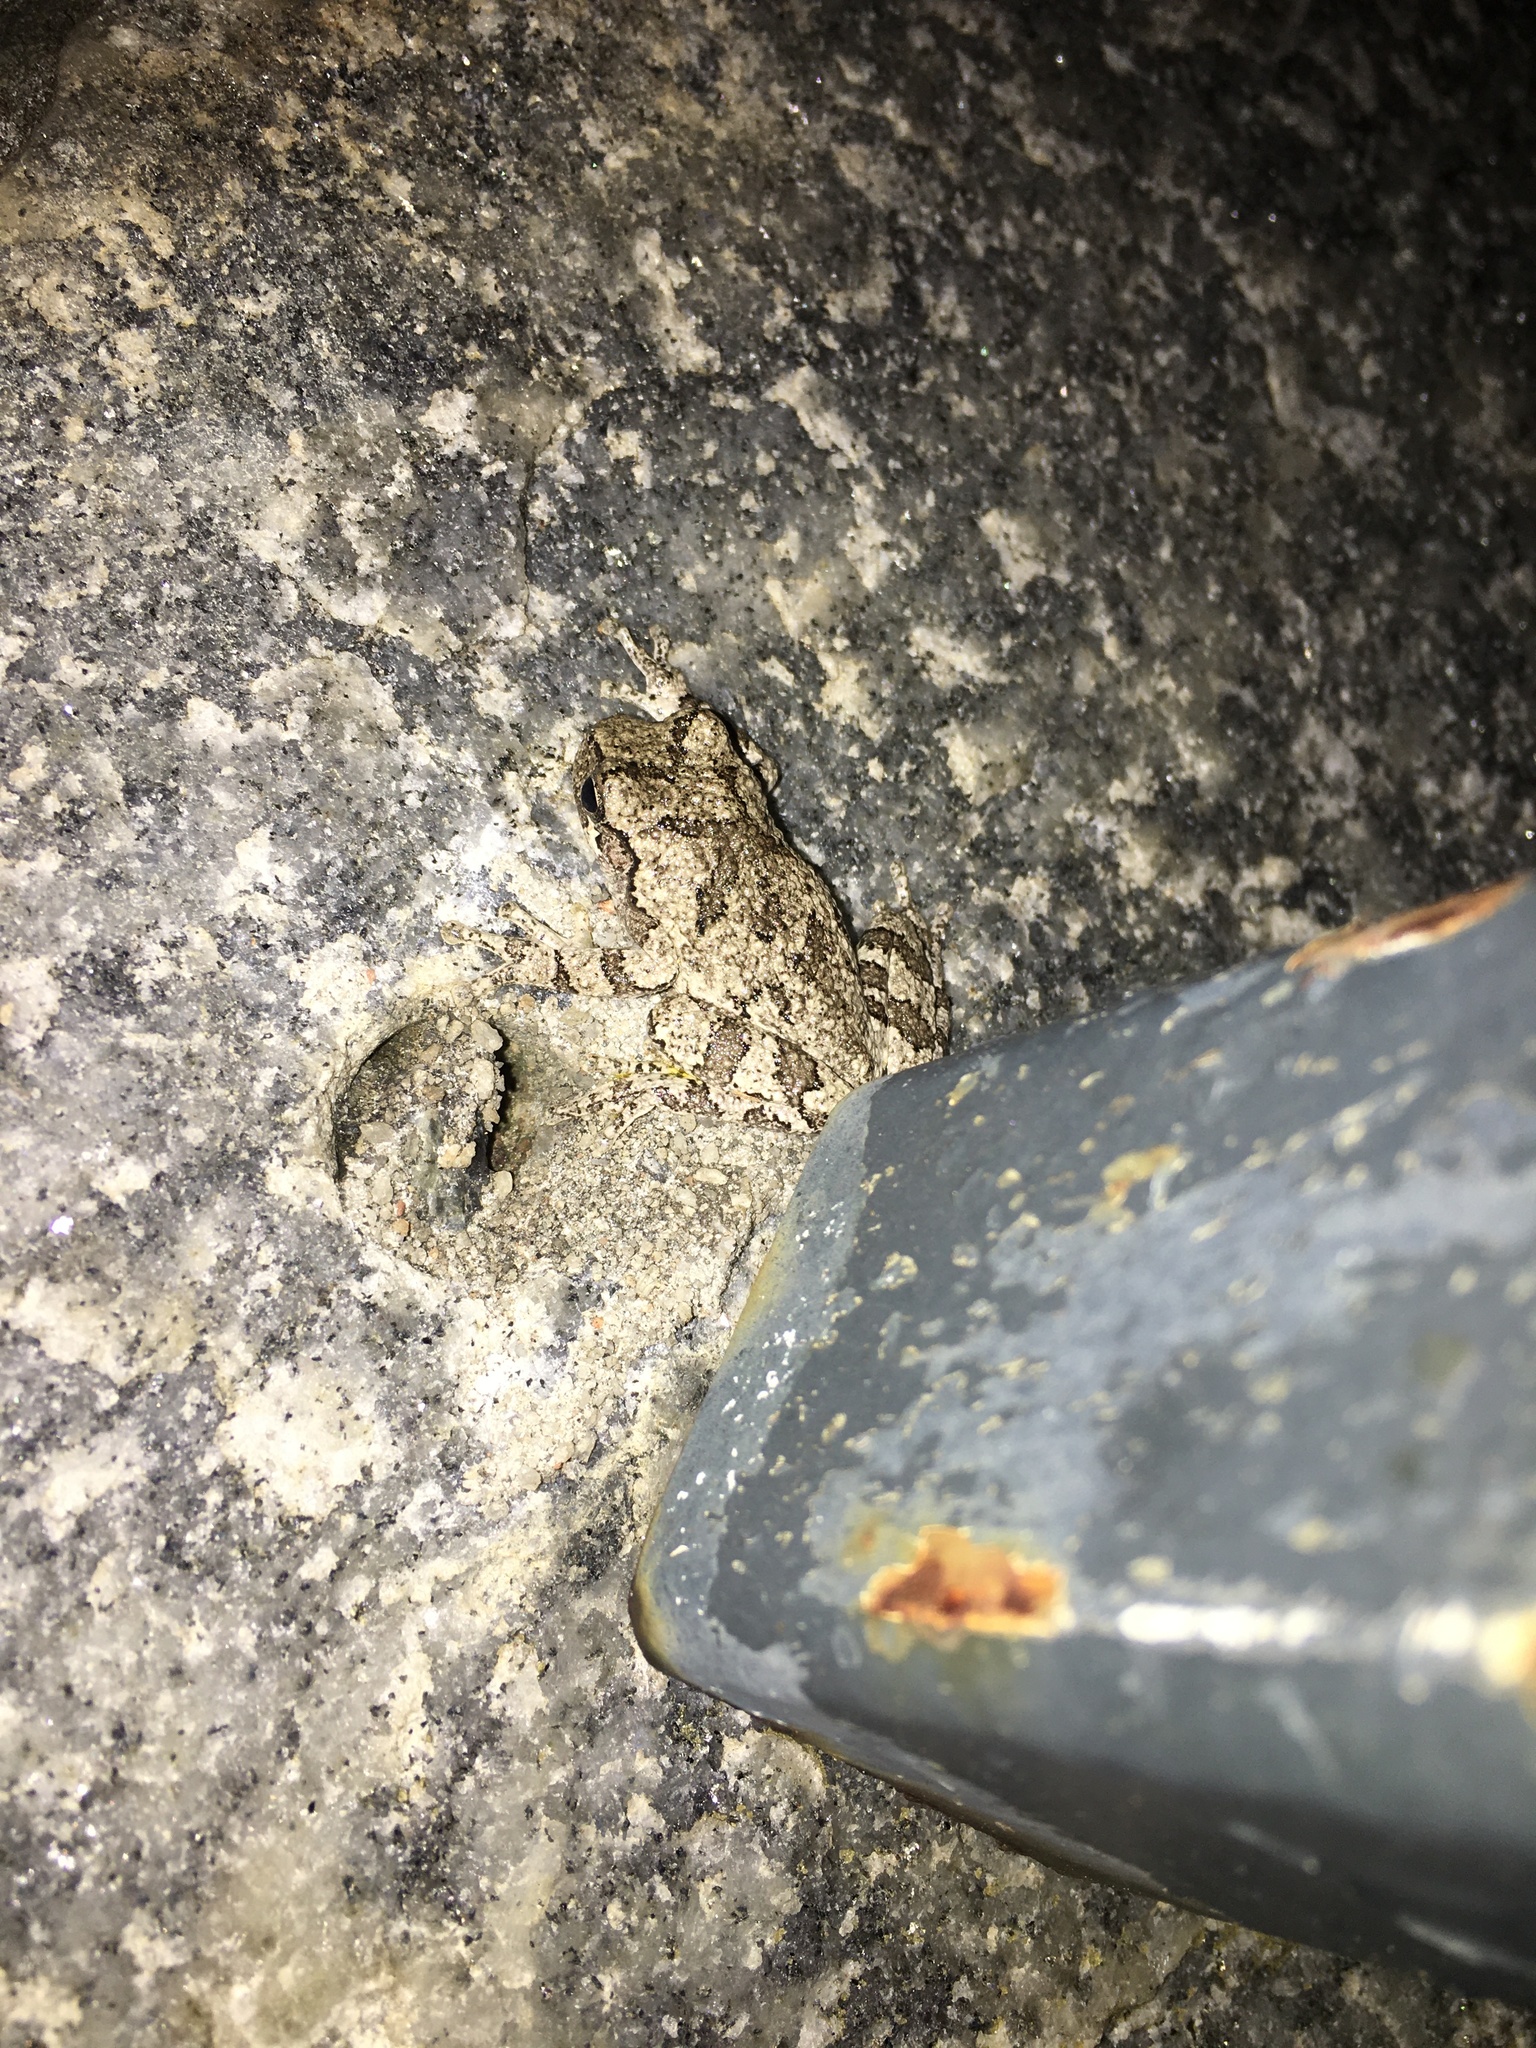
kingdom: Animalia
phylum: Chordata
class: Amphibia
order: Anura
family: Hylidae
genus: Dryophytes
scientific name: Dryophytes chrysoscelis
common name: Cope's gray treefrog
